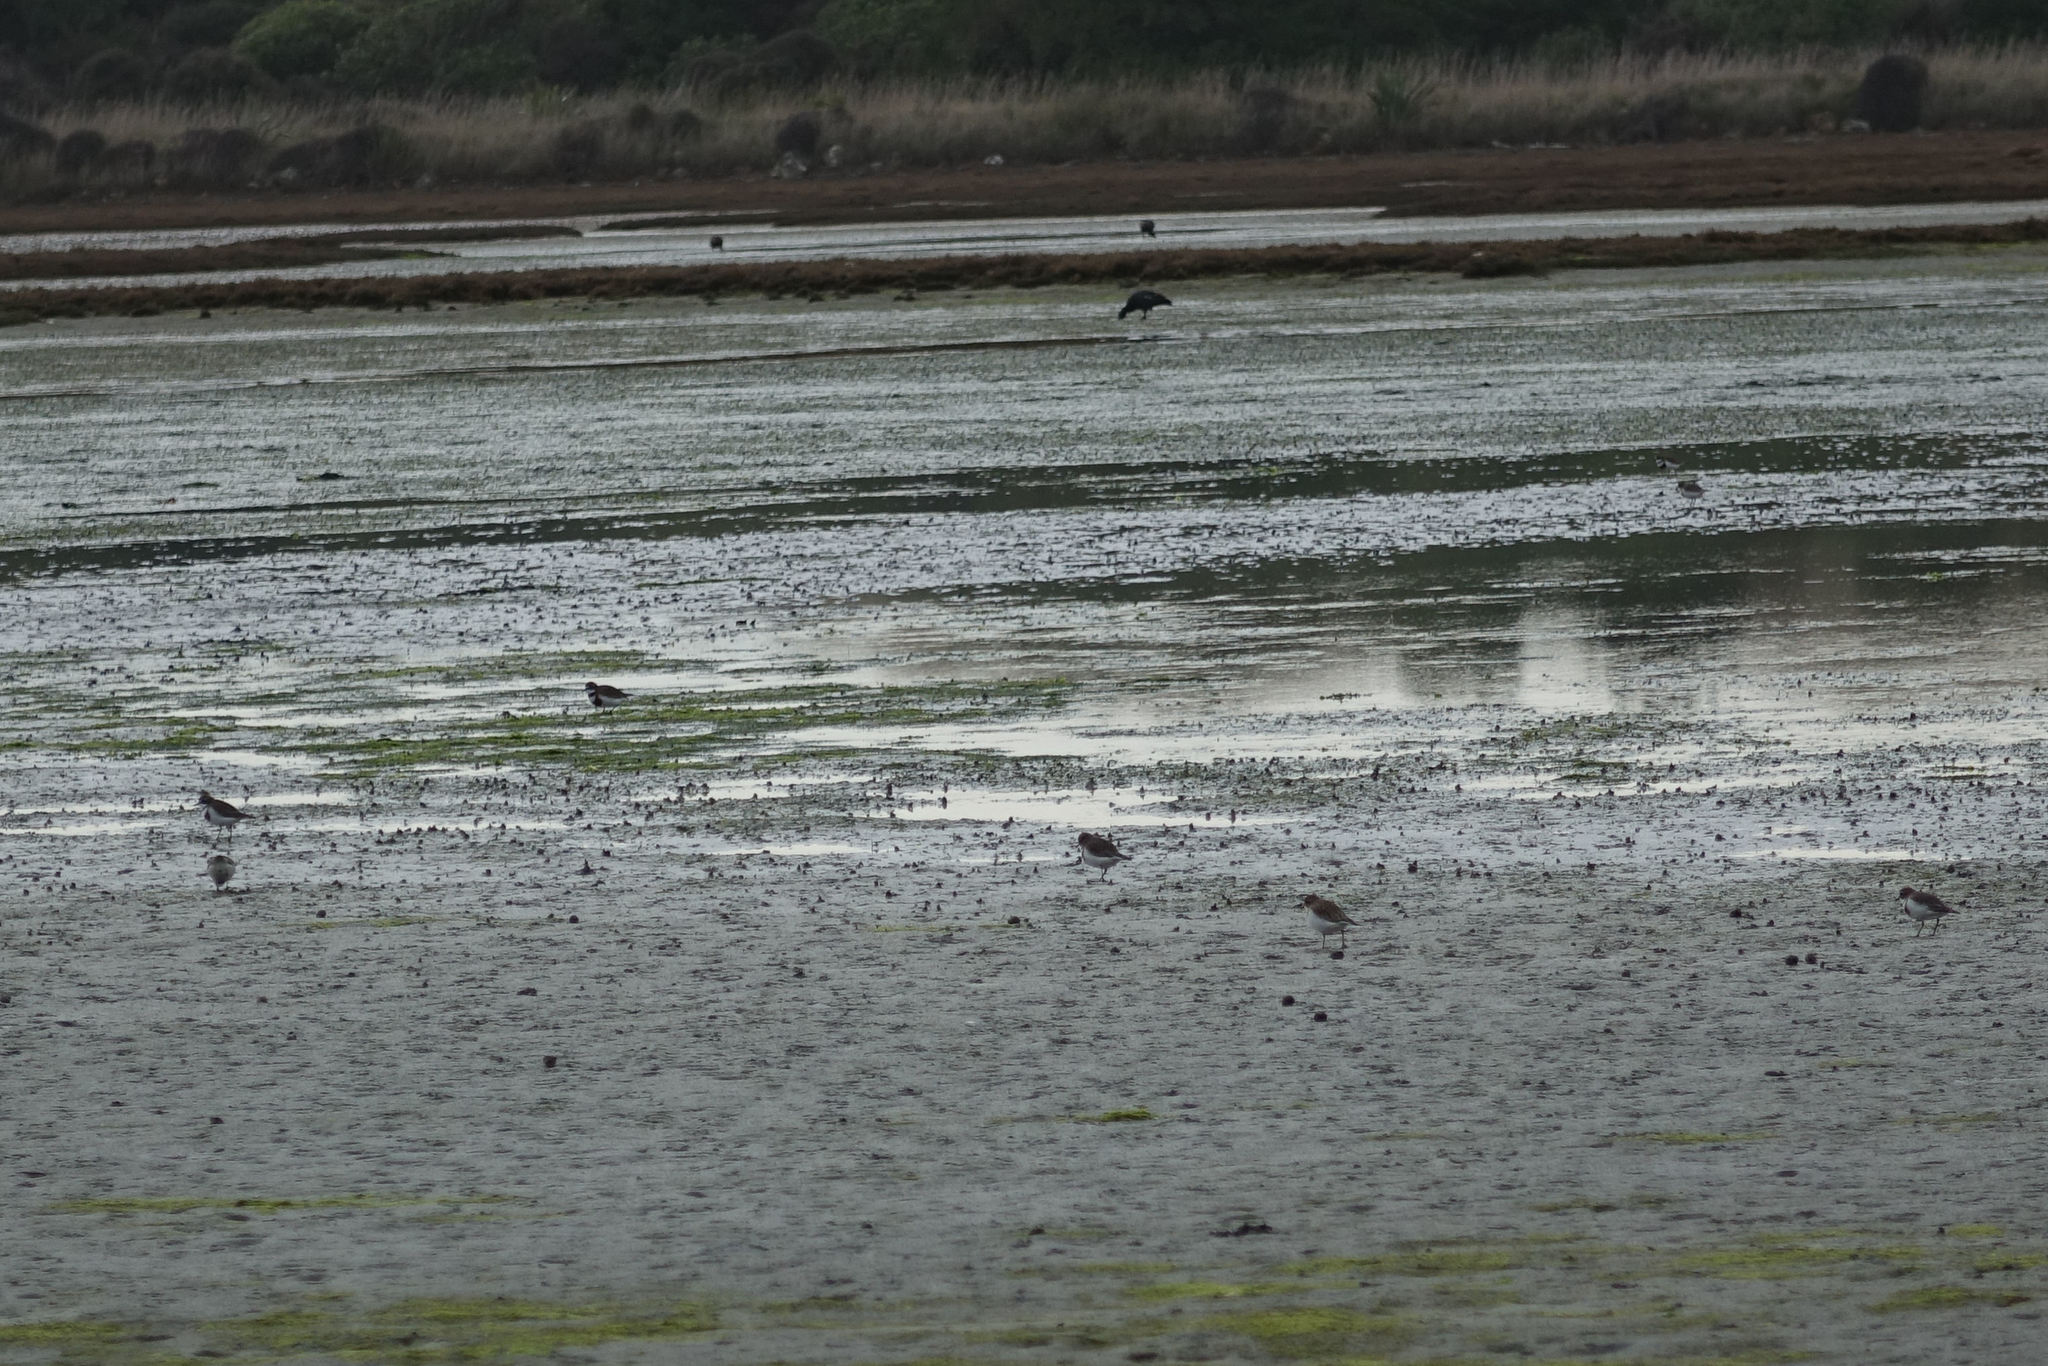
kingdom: Animalia
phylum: Chordata
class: Aves
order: Charadriiformes
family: Charadriidae
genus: Anarhynchus
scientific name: Anarhynchus
